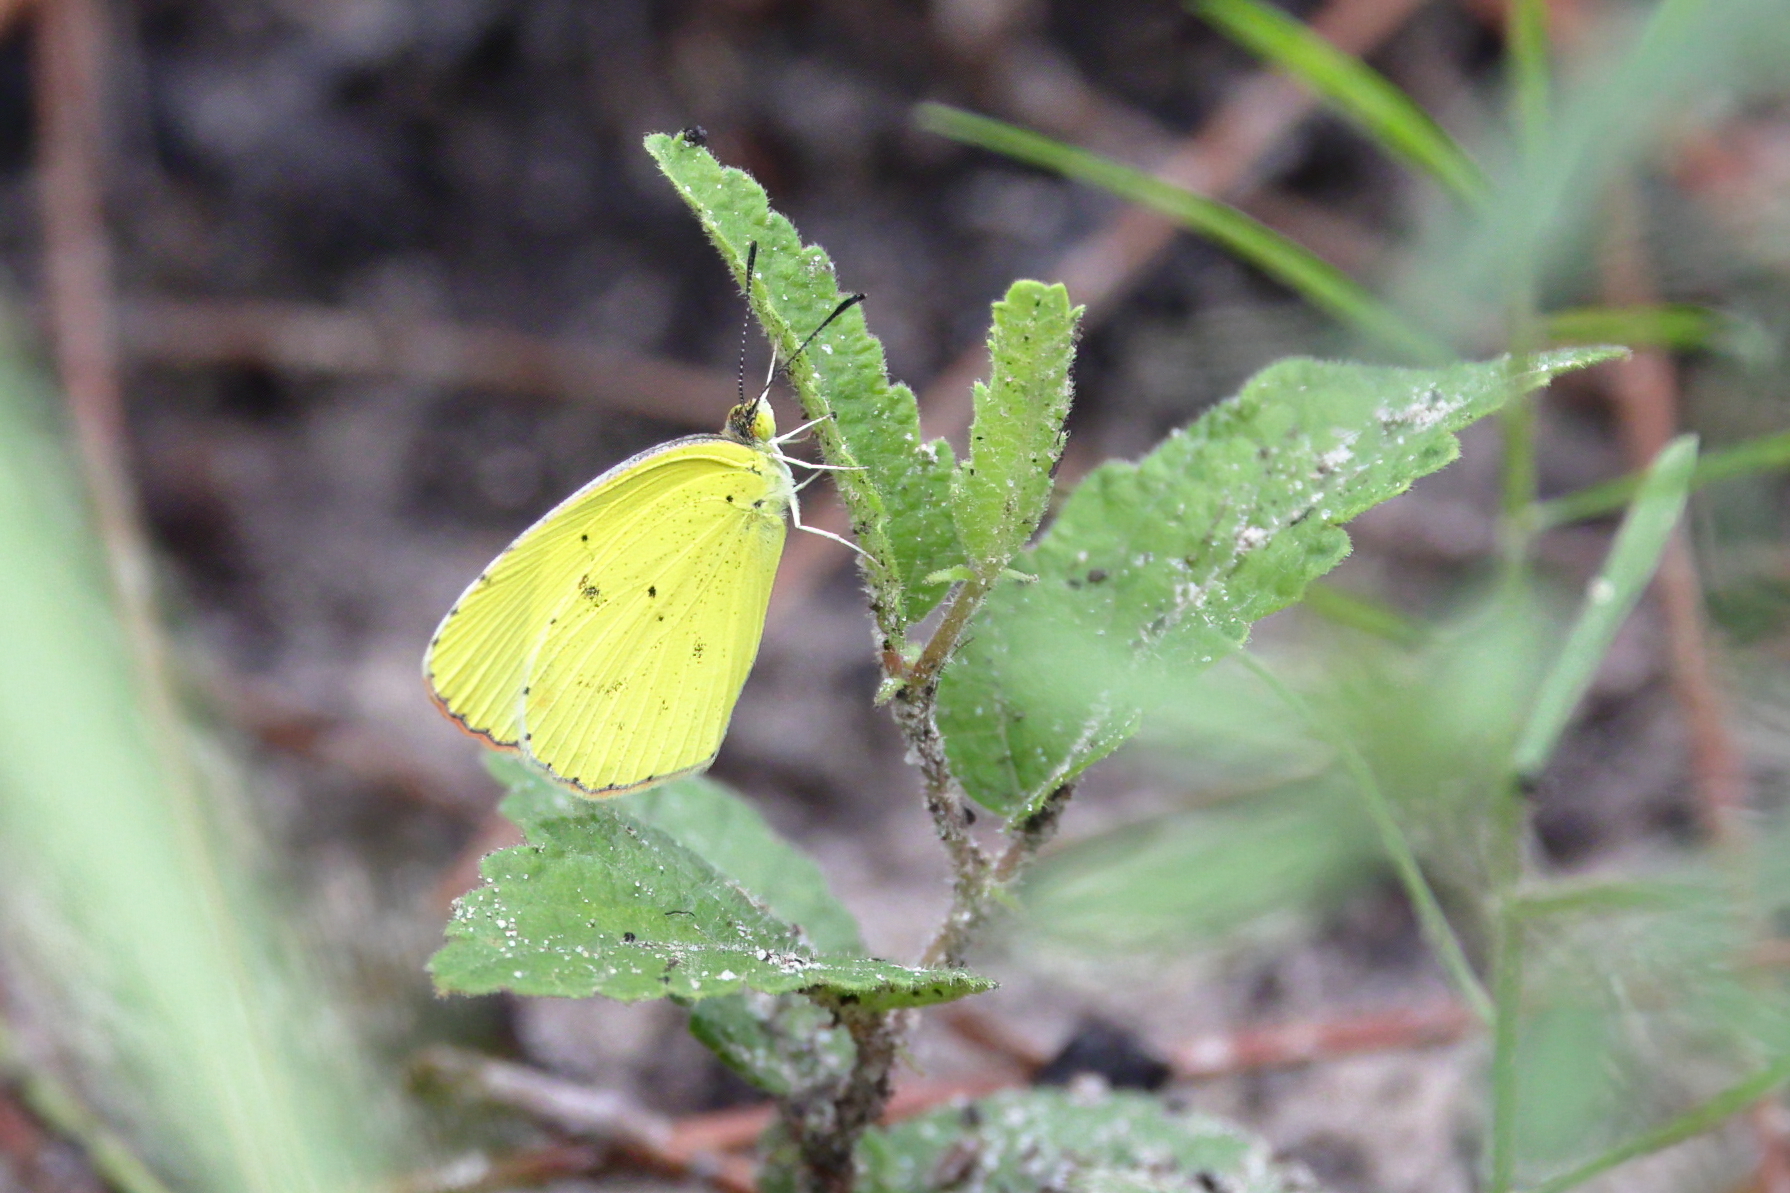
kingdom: Animalia
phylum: Arthropoda
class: Insecta
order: Lepidoptera
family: Pieridae
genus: Pyrisitia
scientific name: Pyrisitia lisa
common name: Little yellow
